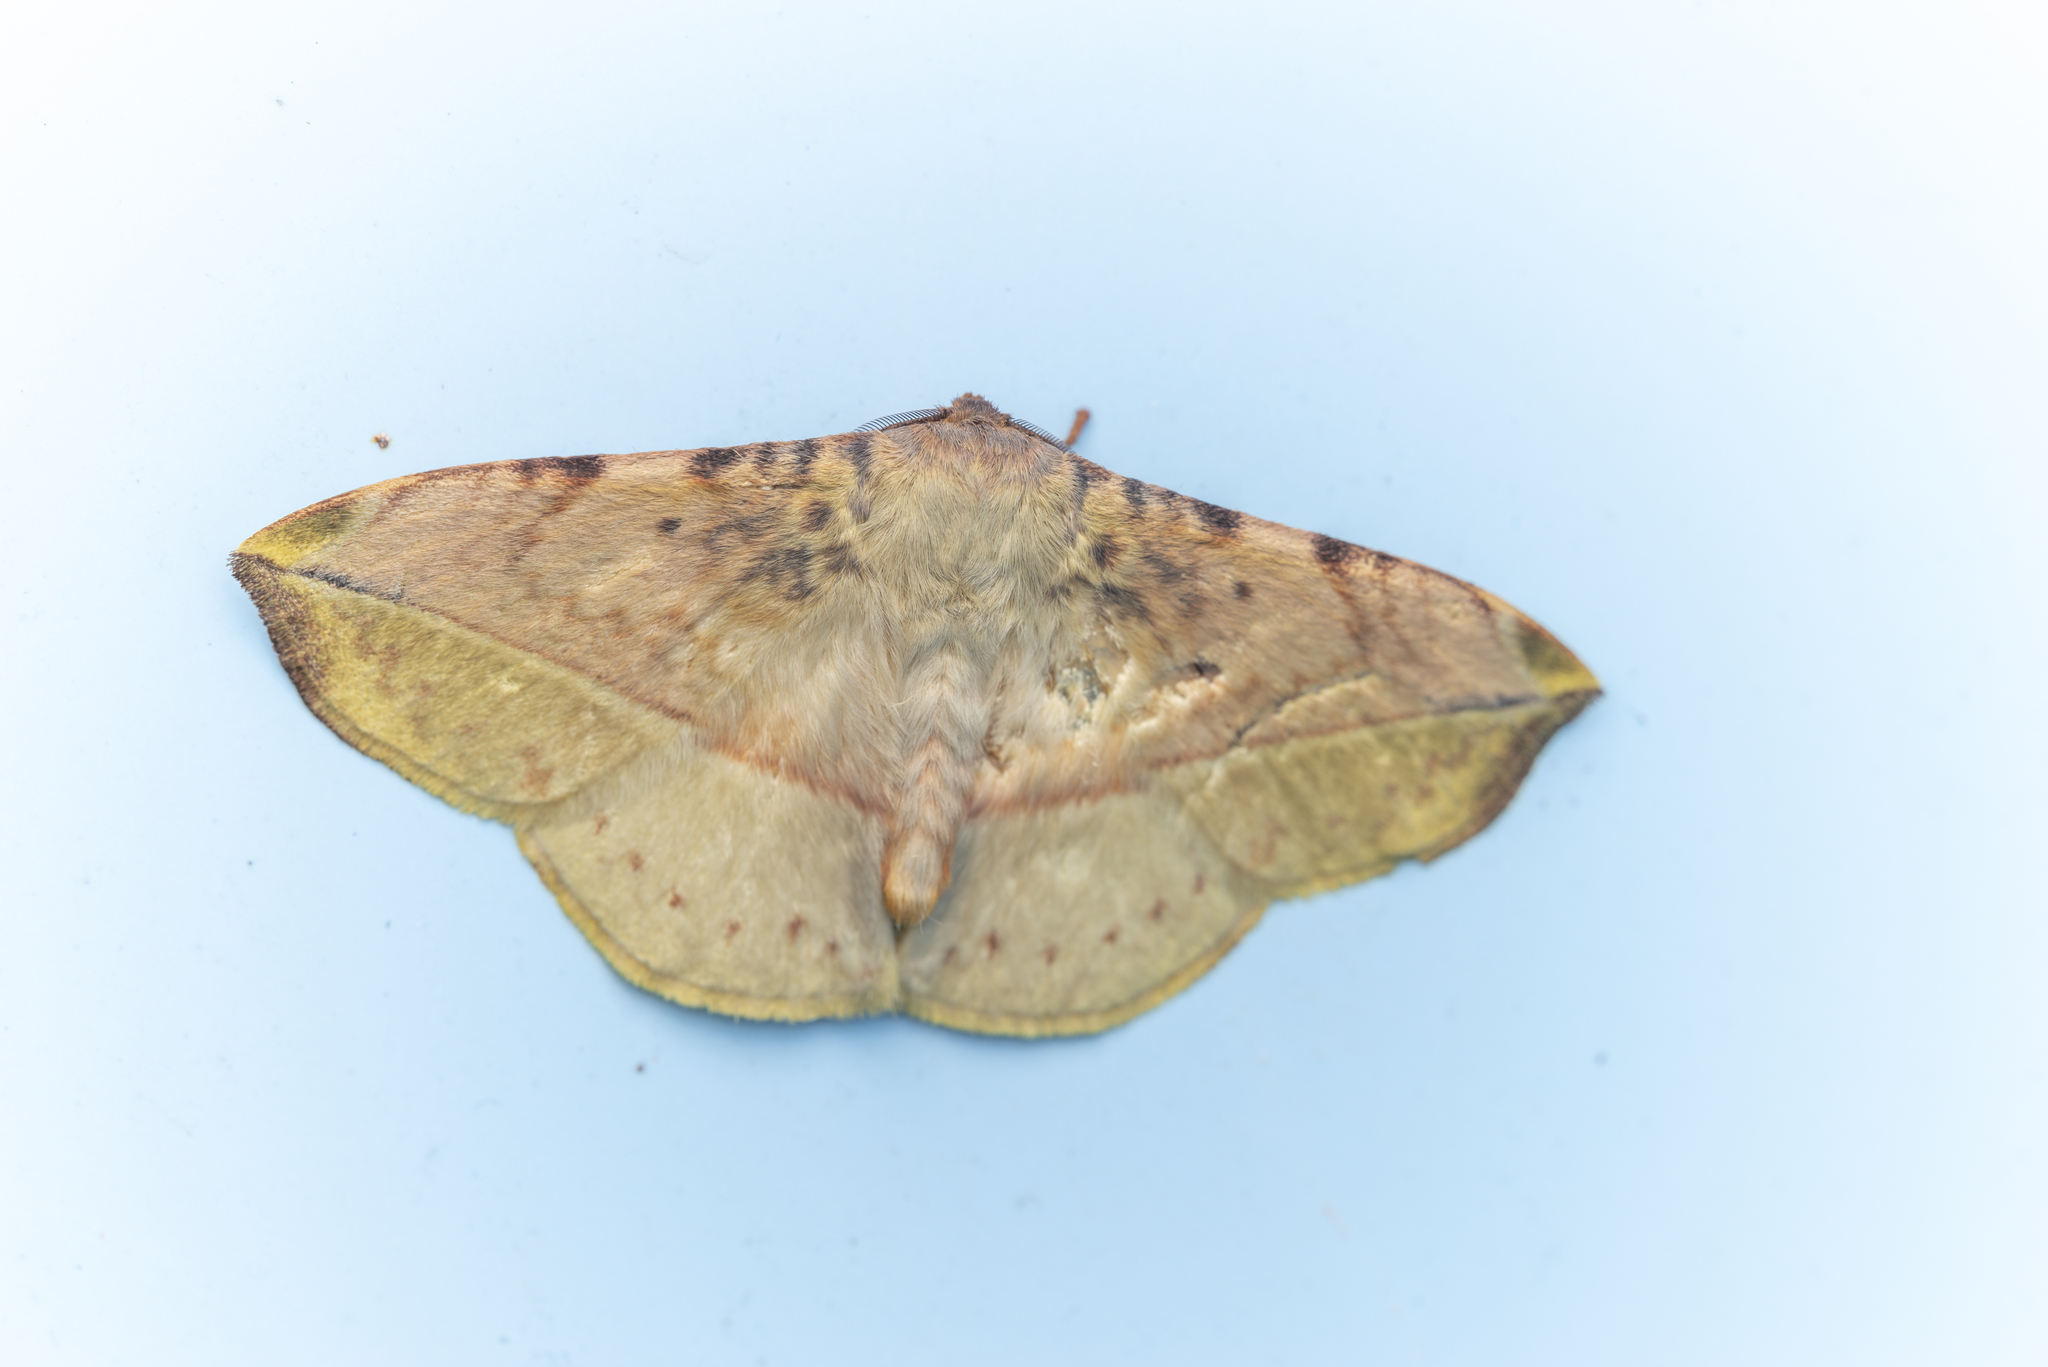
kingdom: Animalia
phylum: Arthropoda
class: Insecta
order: Lepidoptera
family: Eupterotidae
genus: Apha
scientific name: Apha kantonensis
